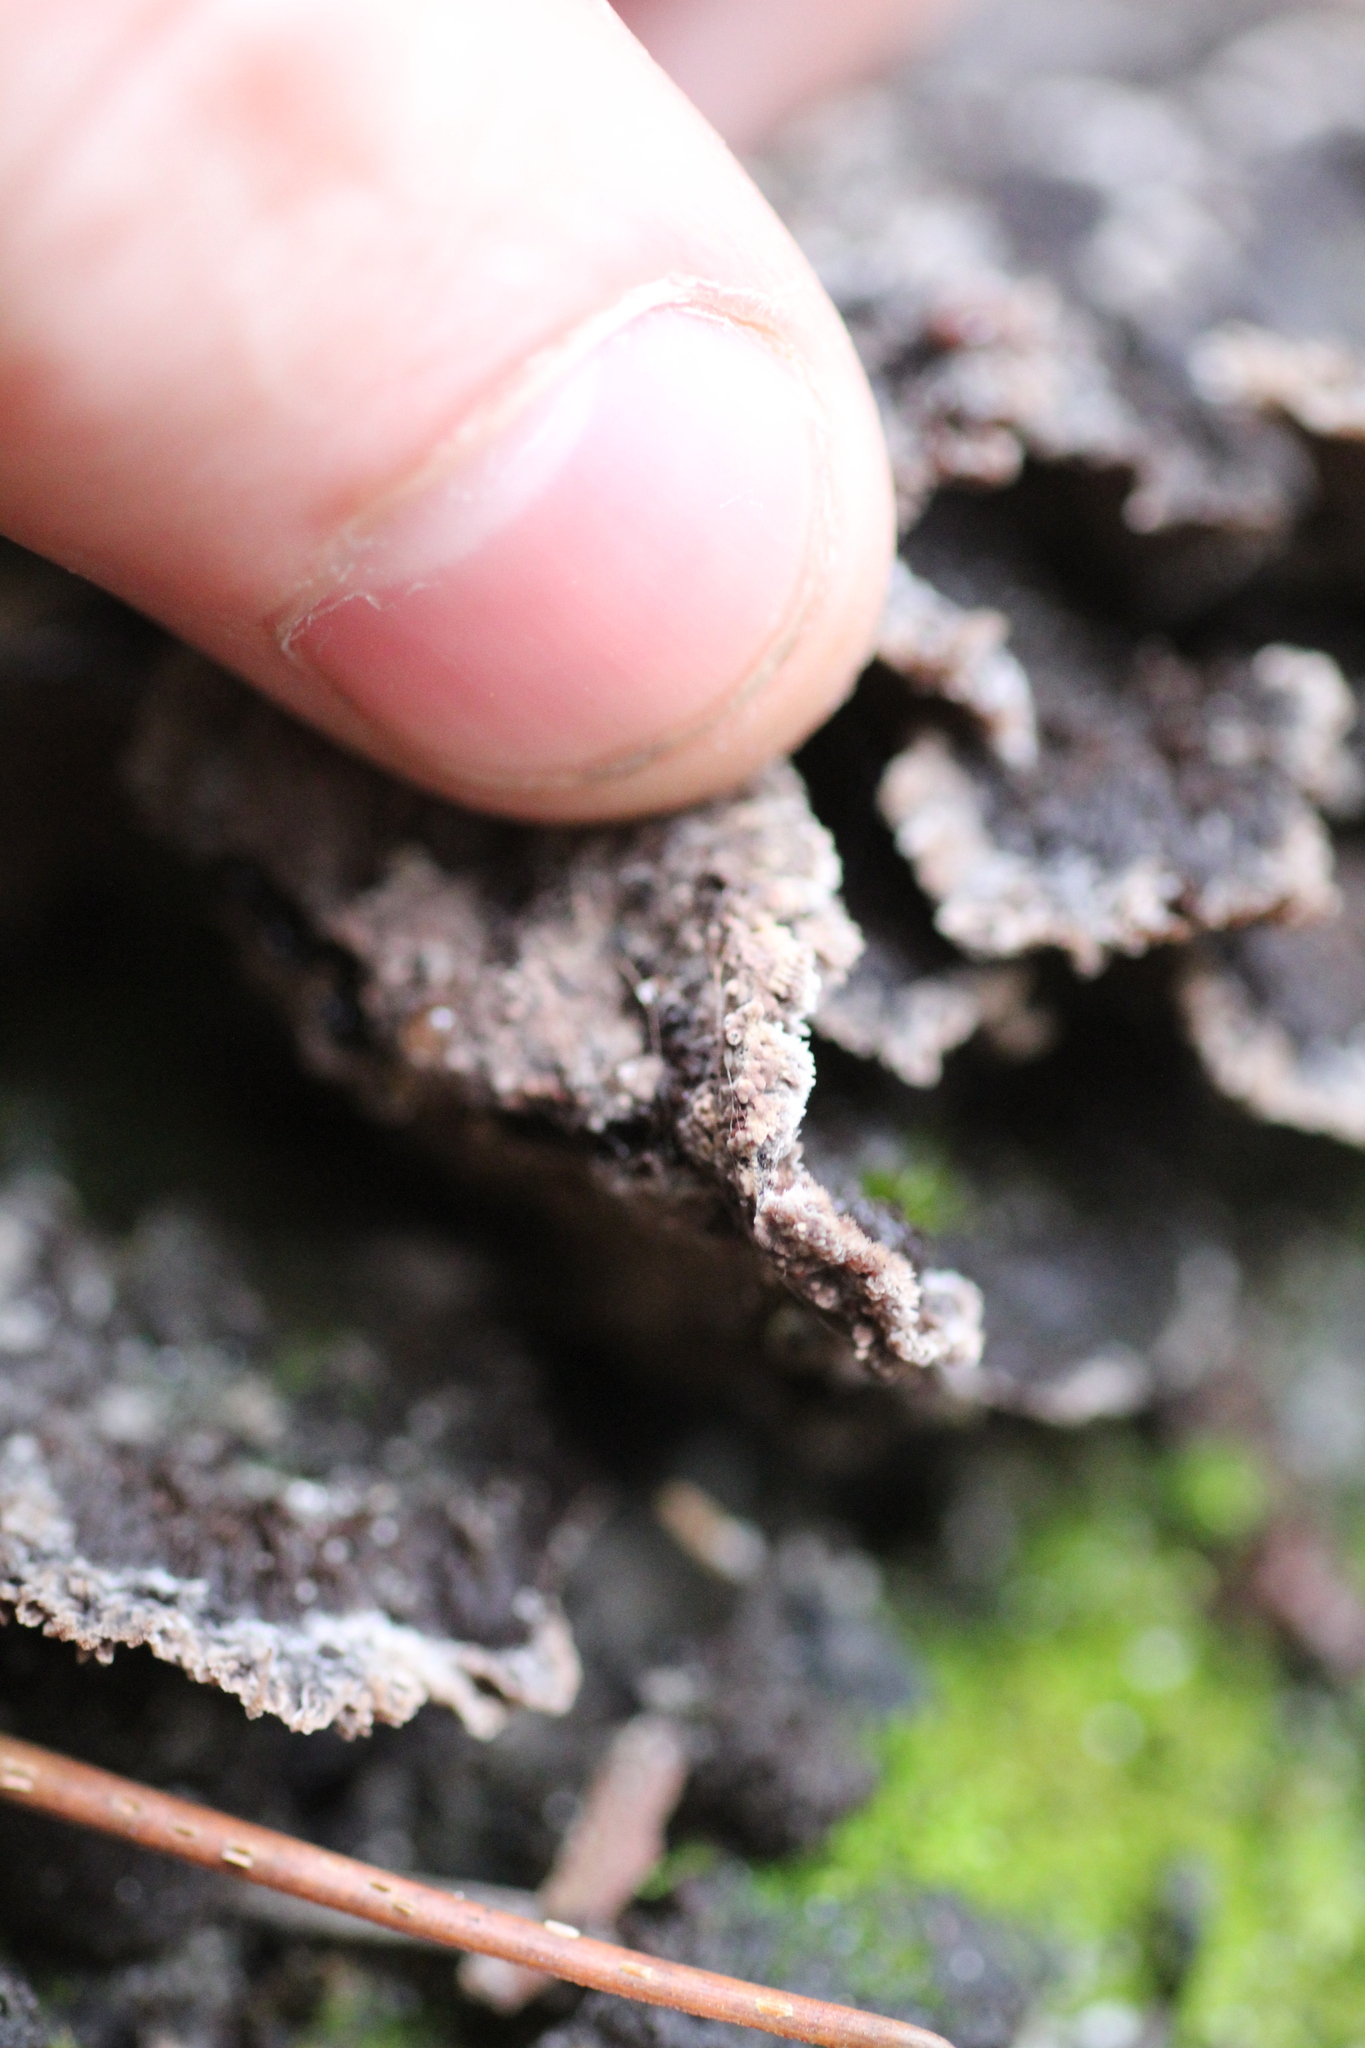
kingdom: Fungi
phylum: Basidiomycota
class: Agaricomycetes
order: Thelephorales
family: Thelephoraceae
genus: Phellodon
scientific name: Phellodon niger
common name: Black tooth
